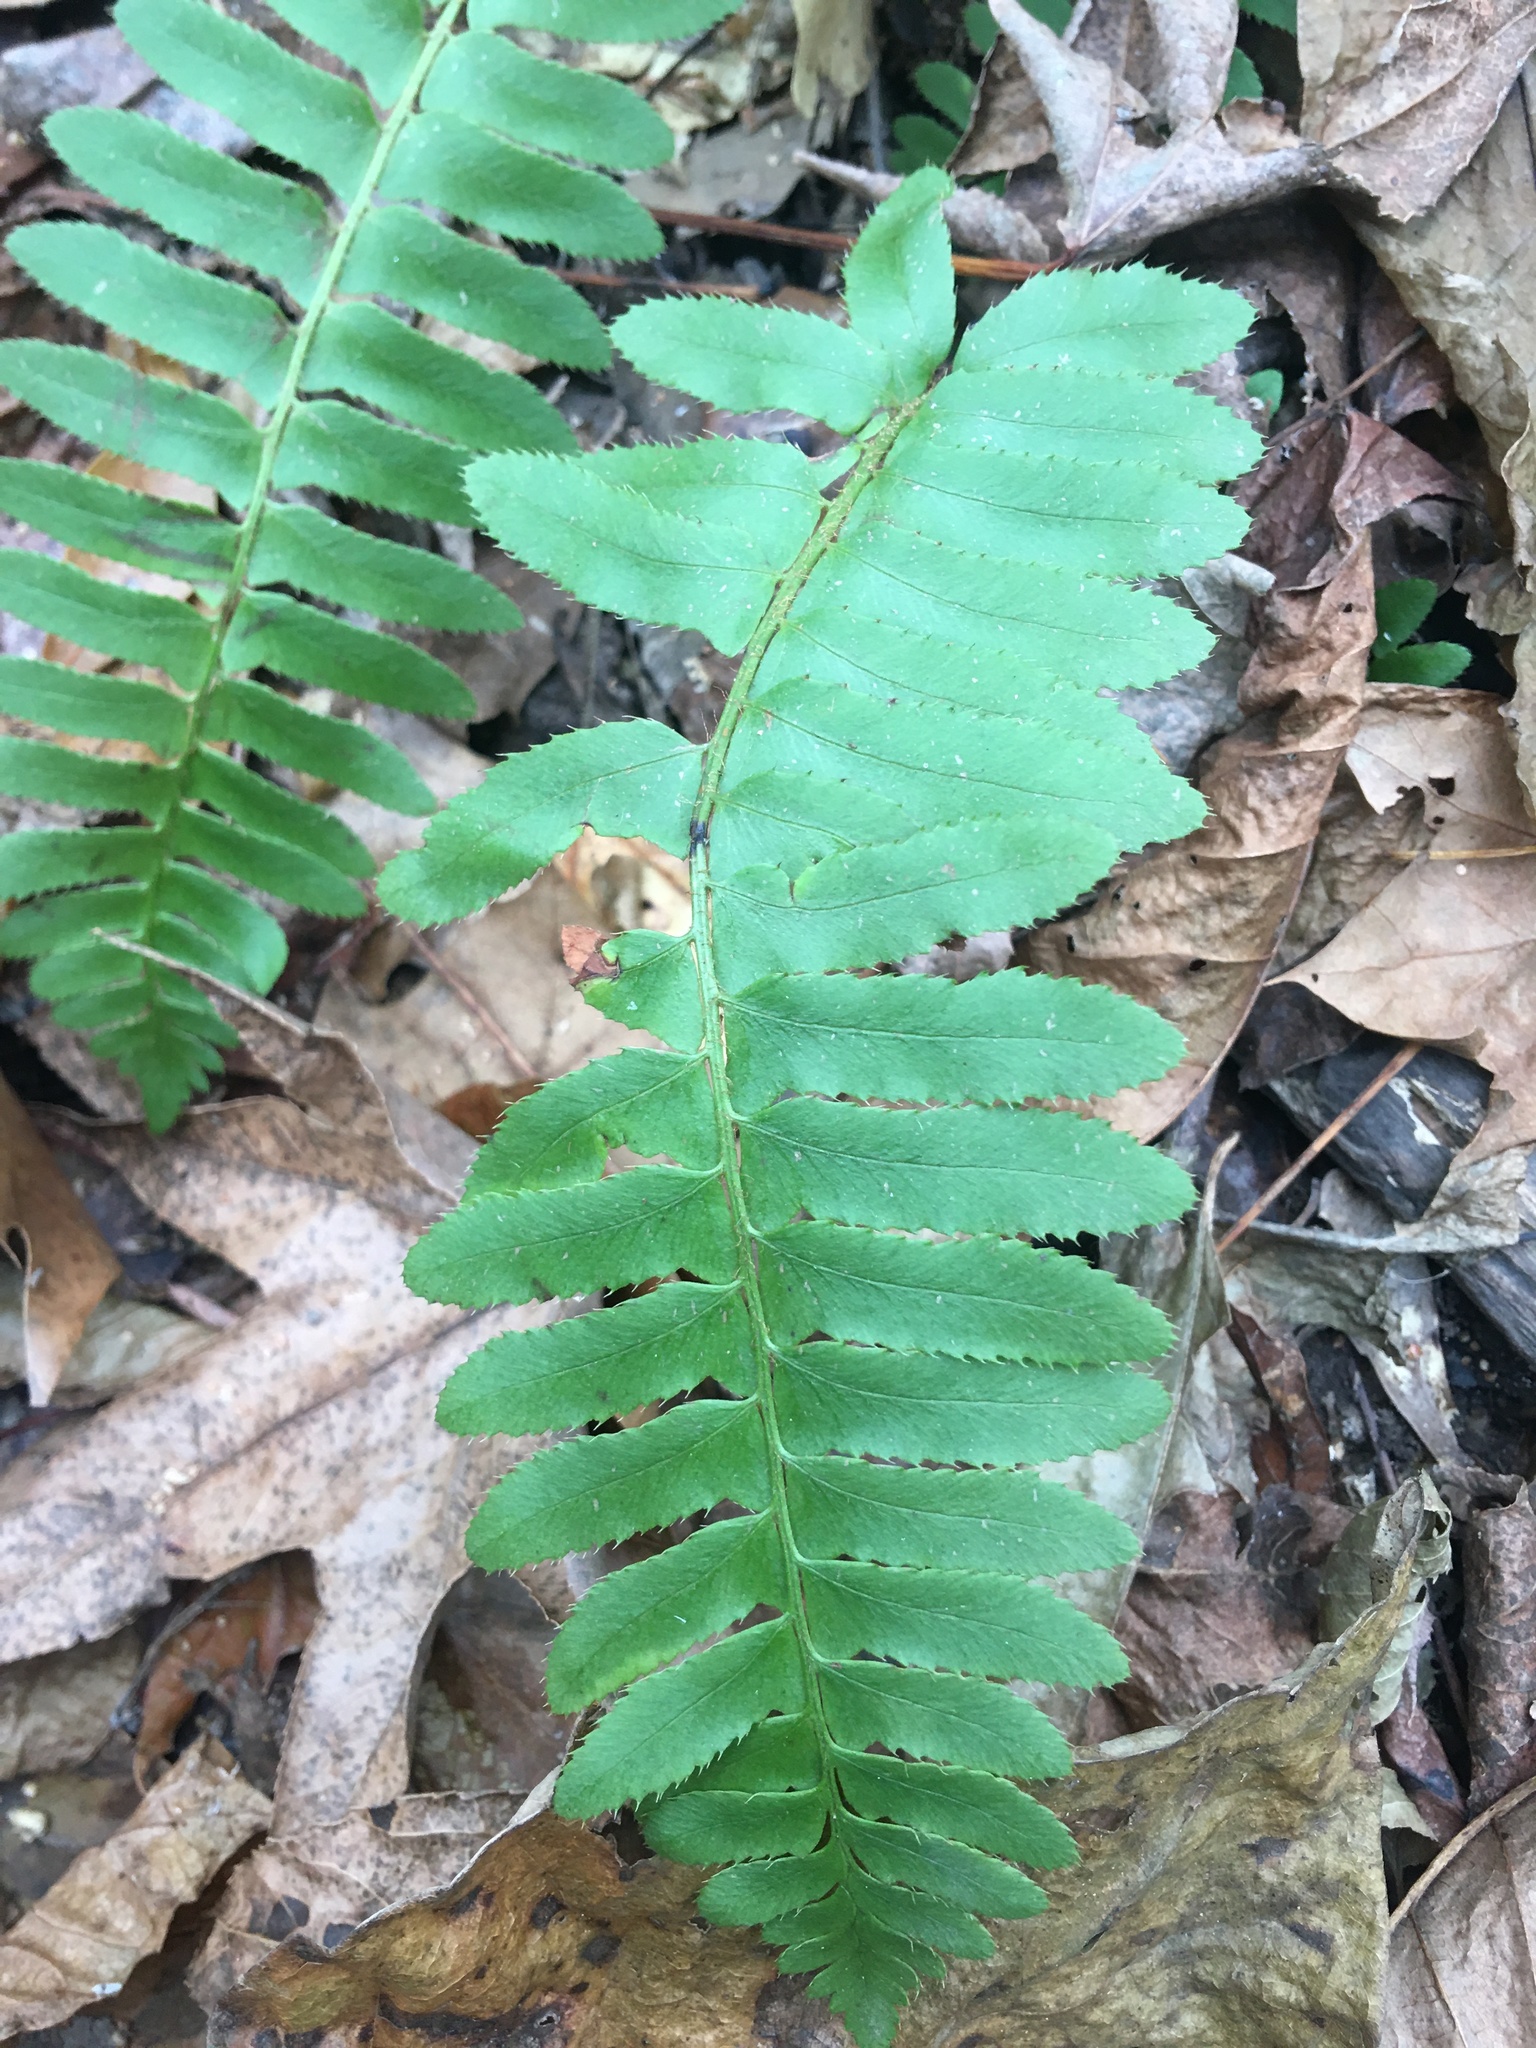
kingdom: Plantae
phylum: Tracheophyta
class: Polypodiopsida
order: Polypodiales
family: Dryopteridaceae
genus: Polystichum
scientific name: Polystichum acrostichoides
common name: Christmas fern
